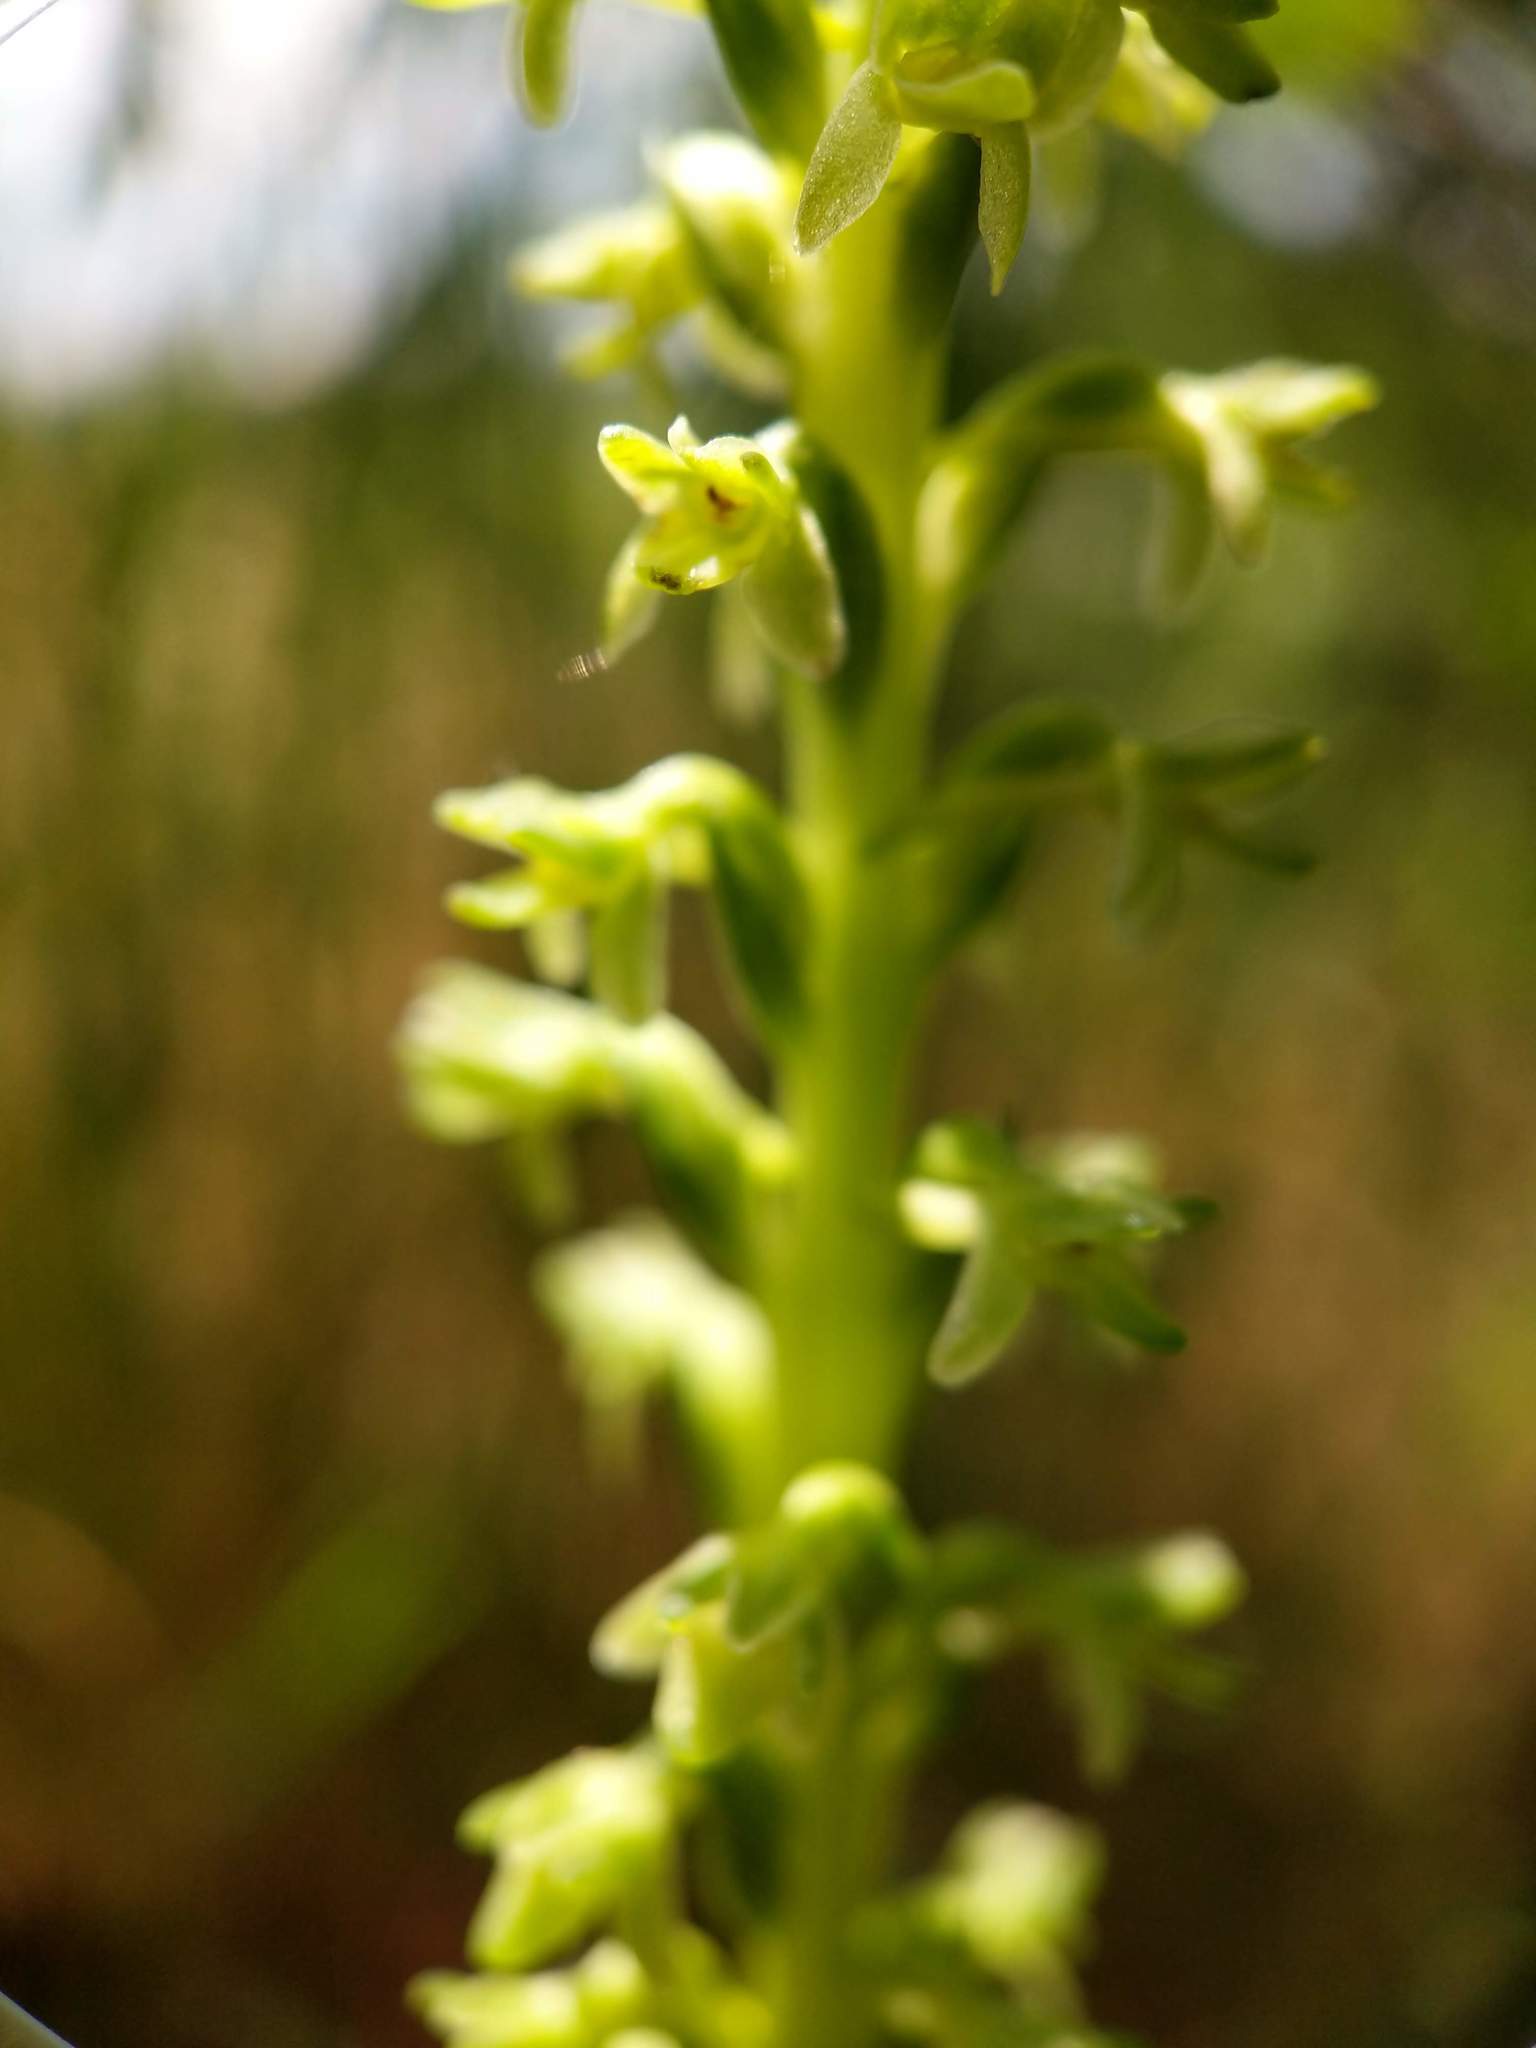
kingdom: Plantae
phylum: Tracheophyta
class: Liliopsida
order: Asparagales
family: Orchidaceae
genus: Platanthera
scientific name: Platanthera unalascensis
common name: Alaska bog orchid
